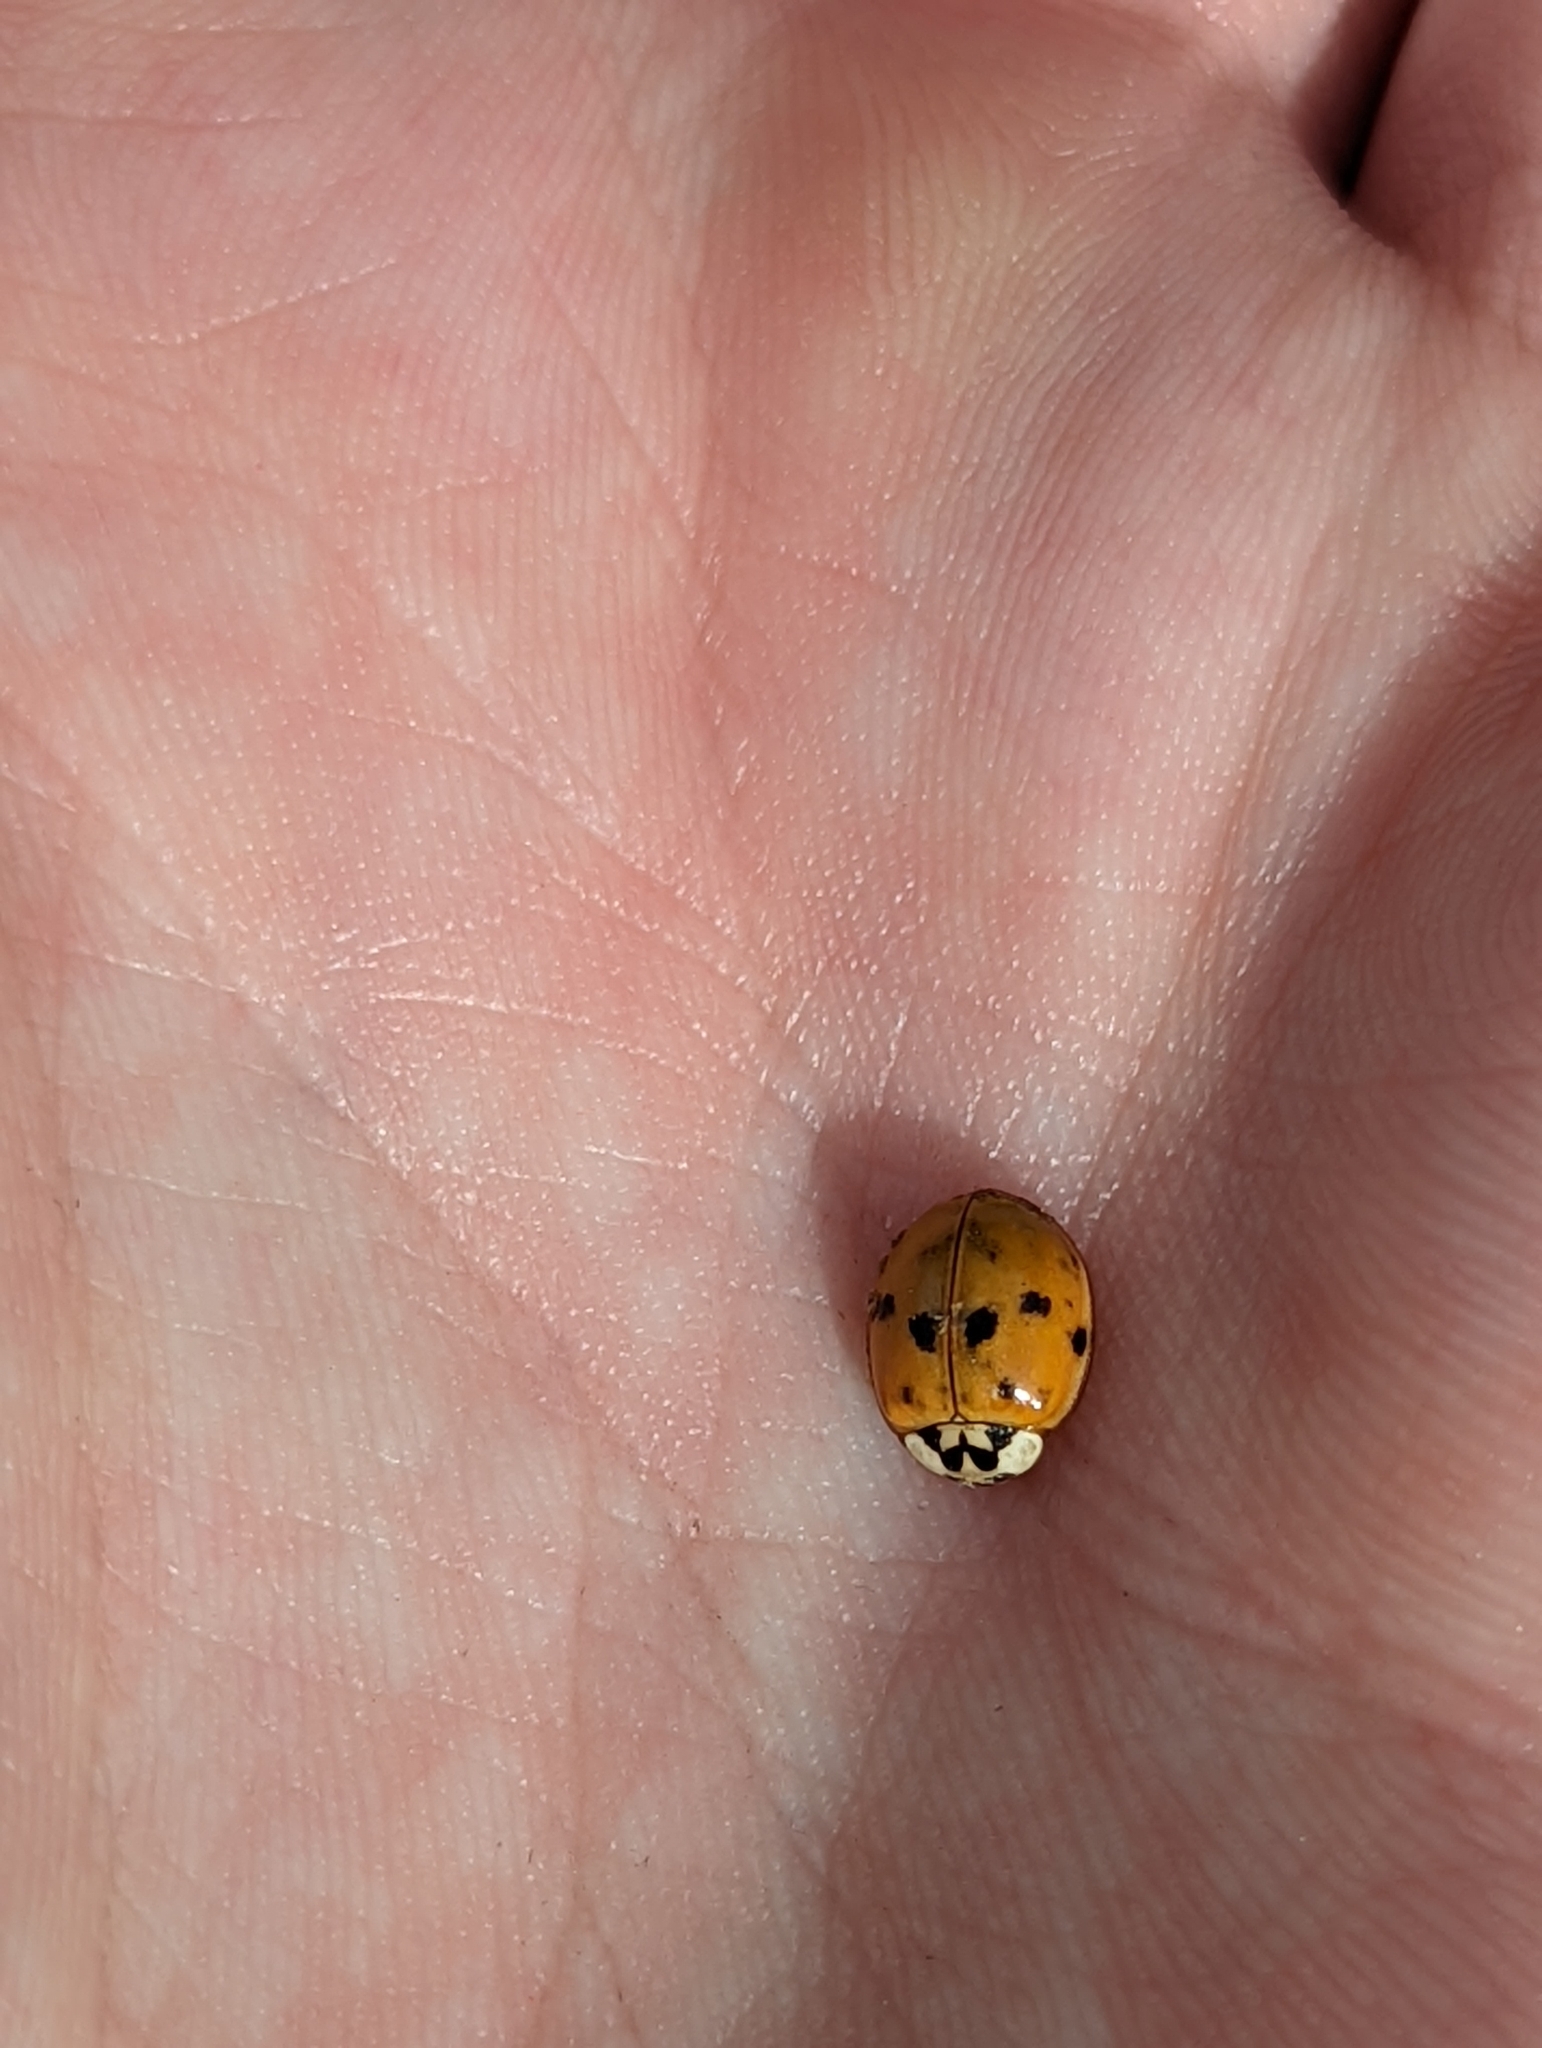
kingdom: Animalia
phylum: Arthropoda
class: Insecta
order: Coleoptera
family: Coccinellidae
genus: Harmonia
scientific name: Harmonia axyridis
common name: Harlequin ladybird
